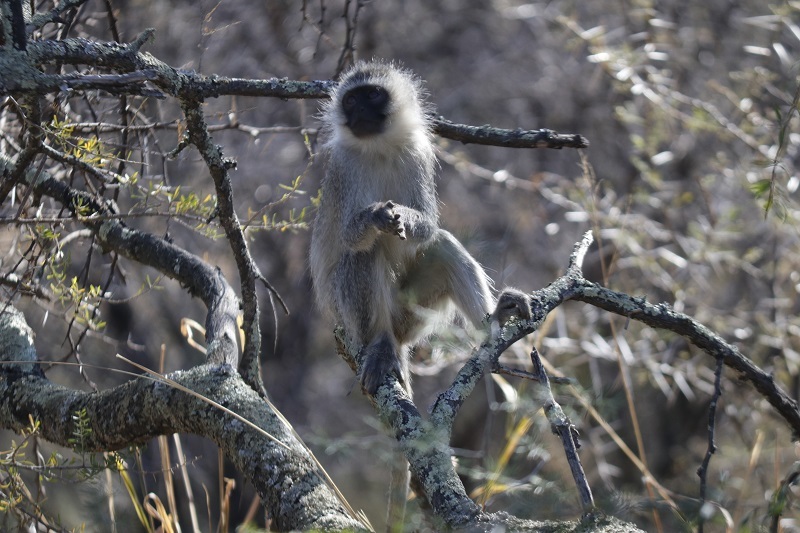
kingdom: Animalia
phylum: Chordata
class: Mammalia
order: Primates
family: Cercopithecidae
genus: Chlorocebus
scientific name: Chlorocebus pygerythrus
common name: Vervet monkey
